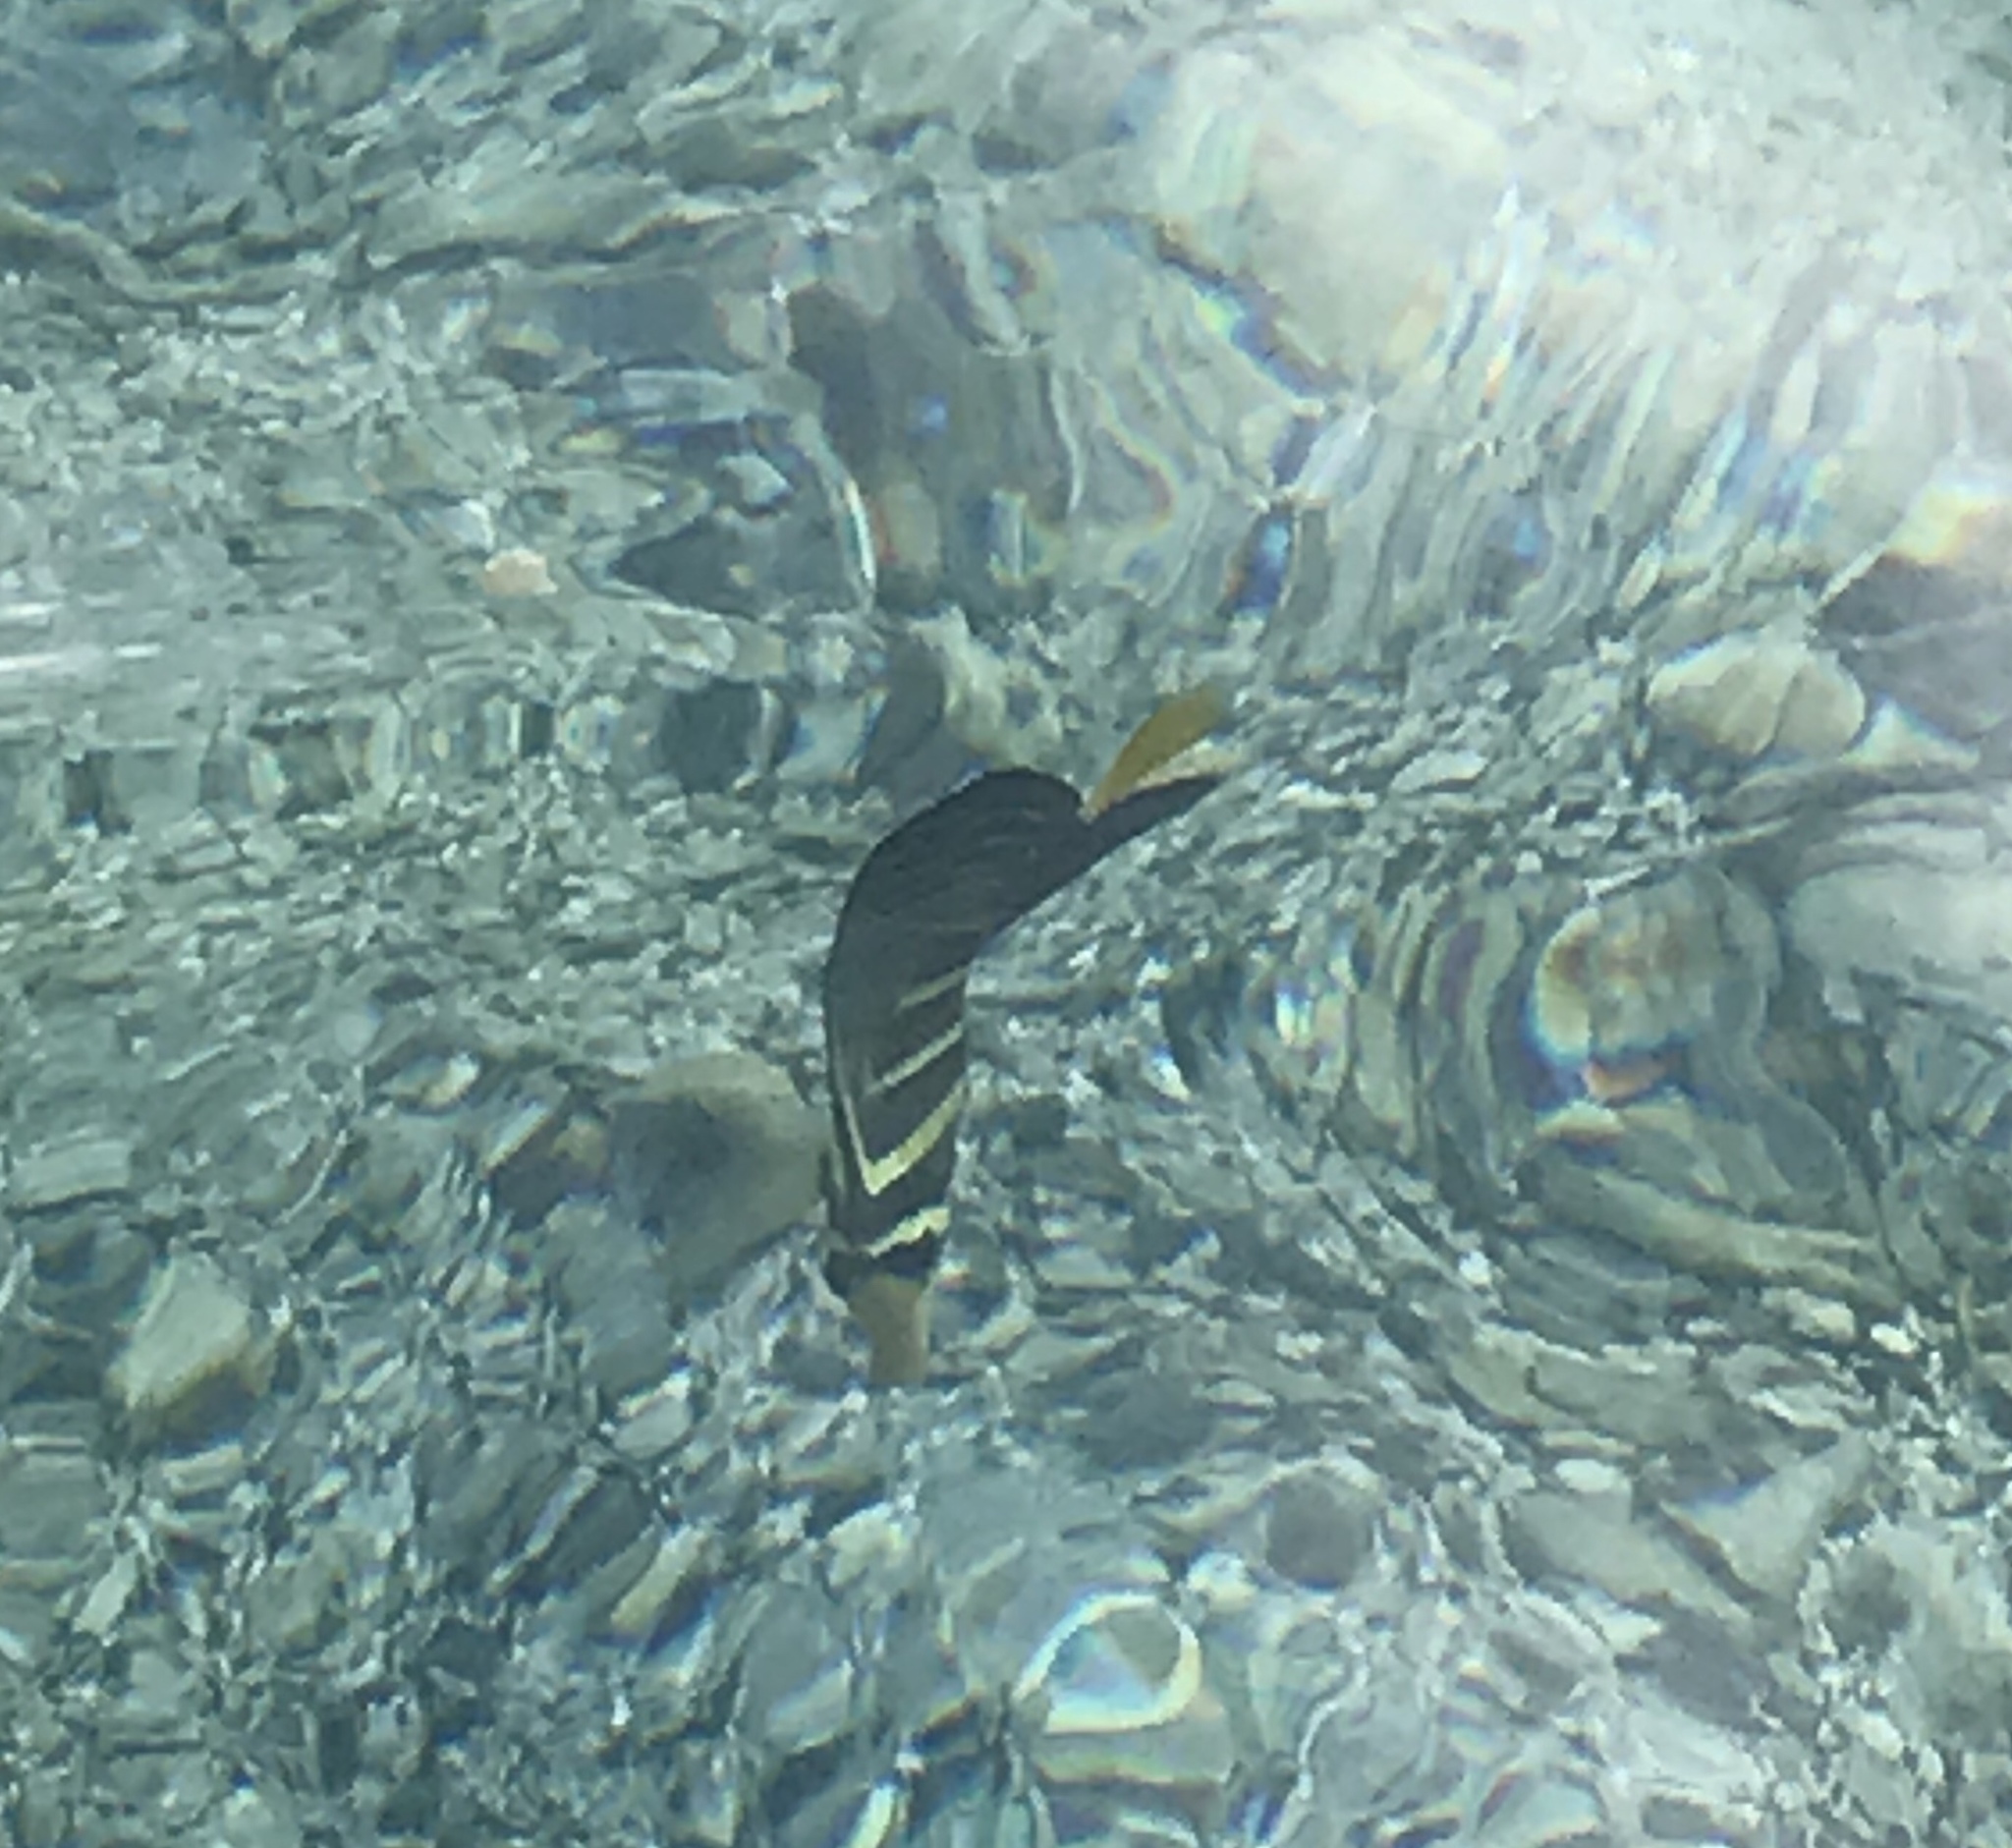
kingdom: Animalia
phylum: Chordata
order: Perciformes
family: Acanthuridae
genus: Zebrasoma
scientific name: Zebrasoma veliferum
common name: Sailfin surgeonfish
